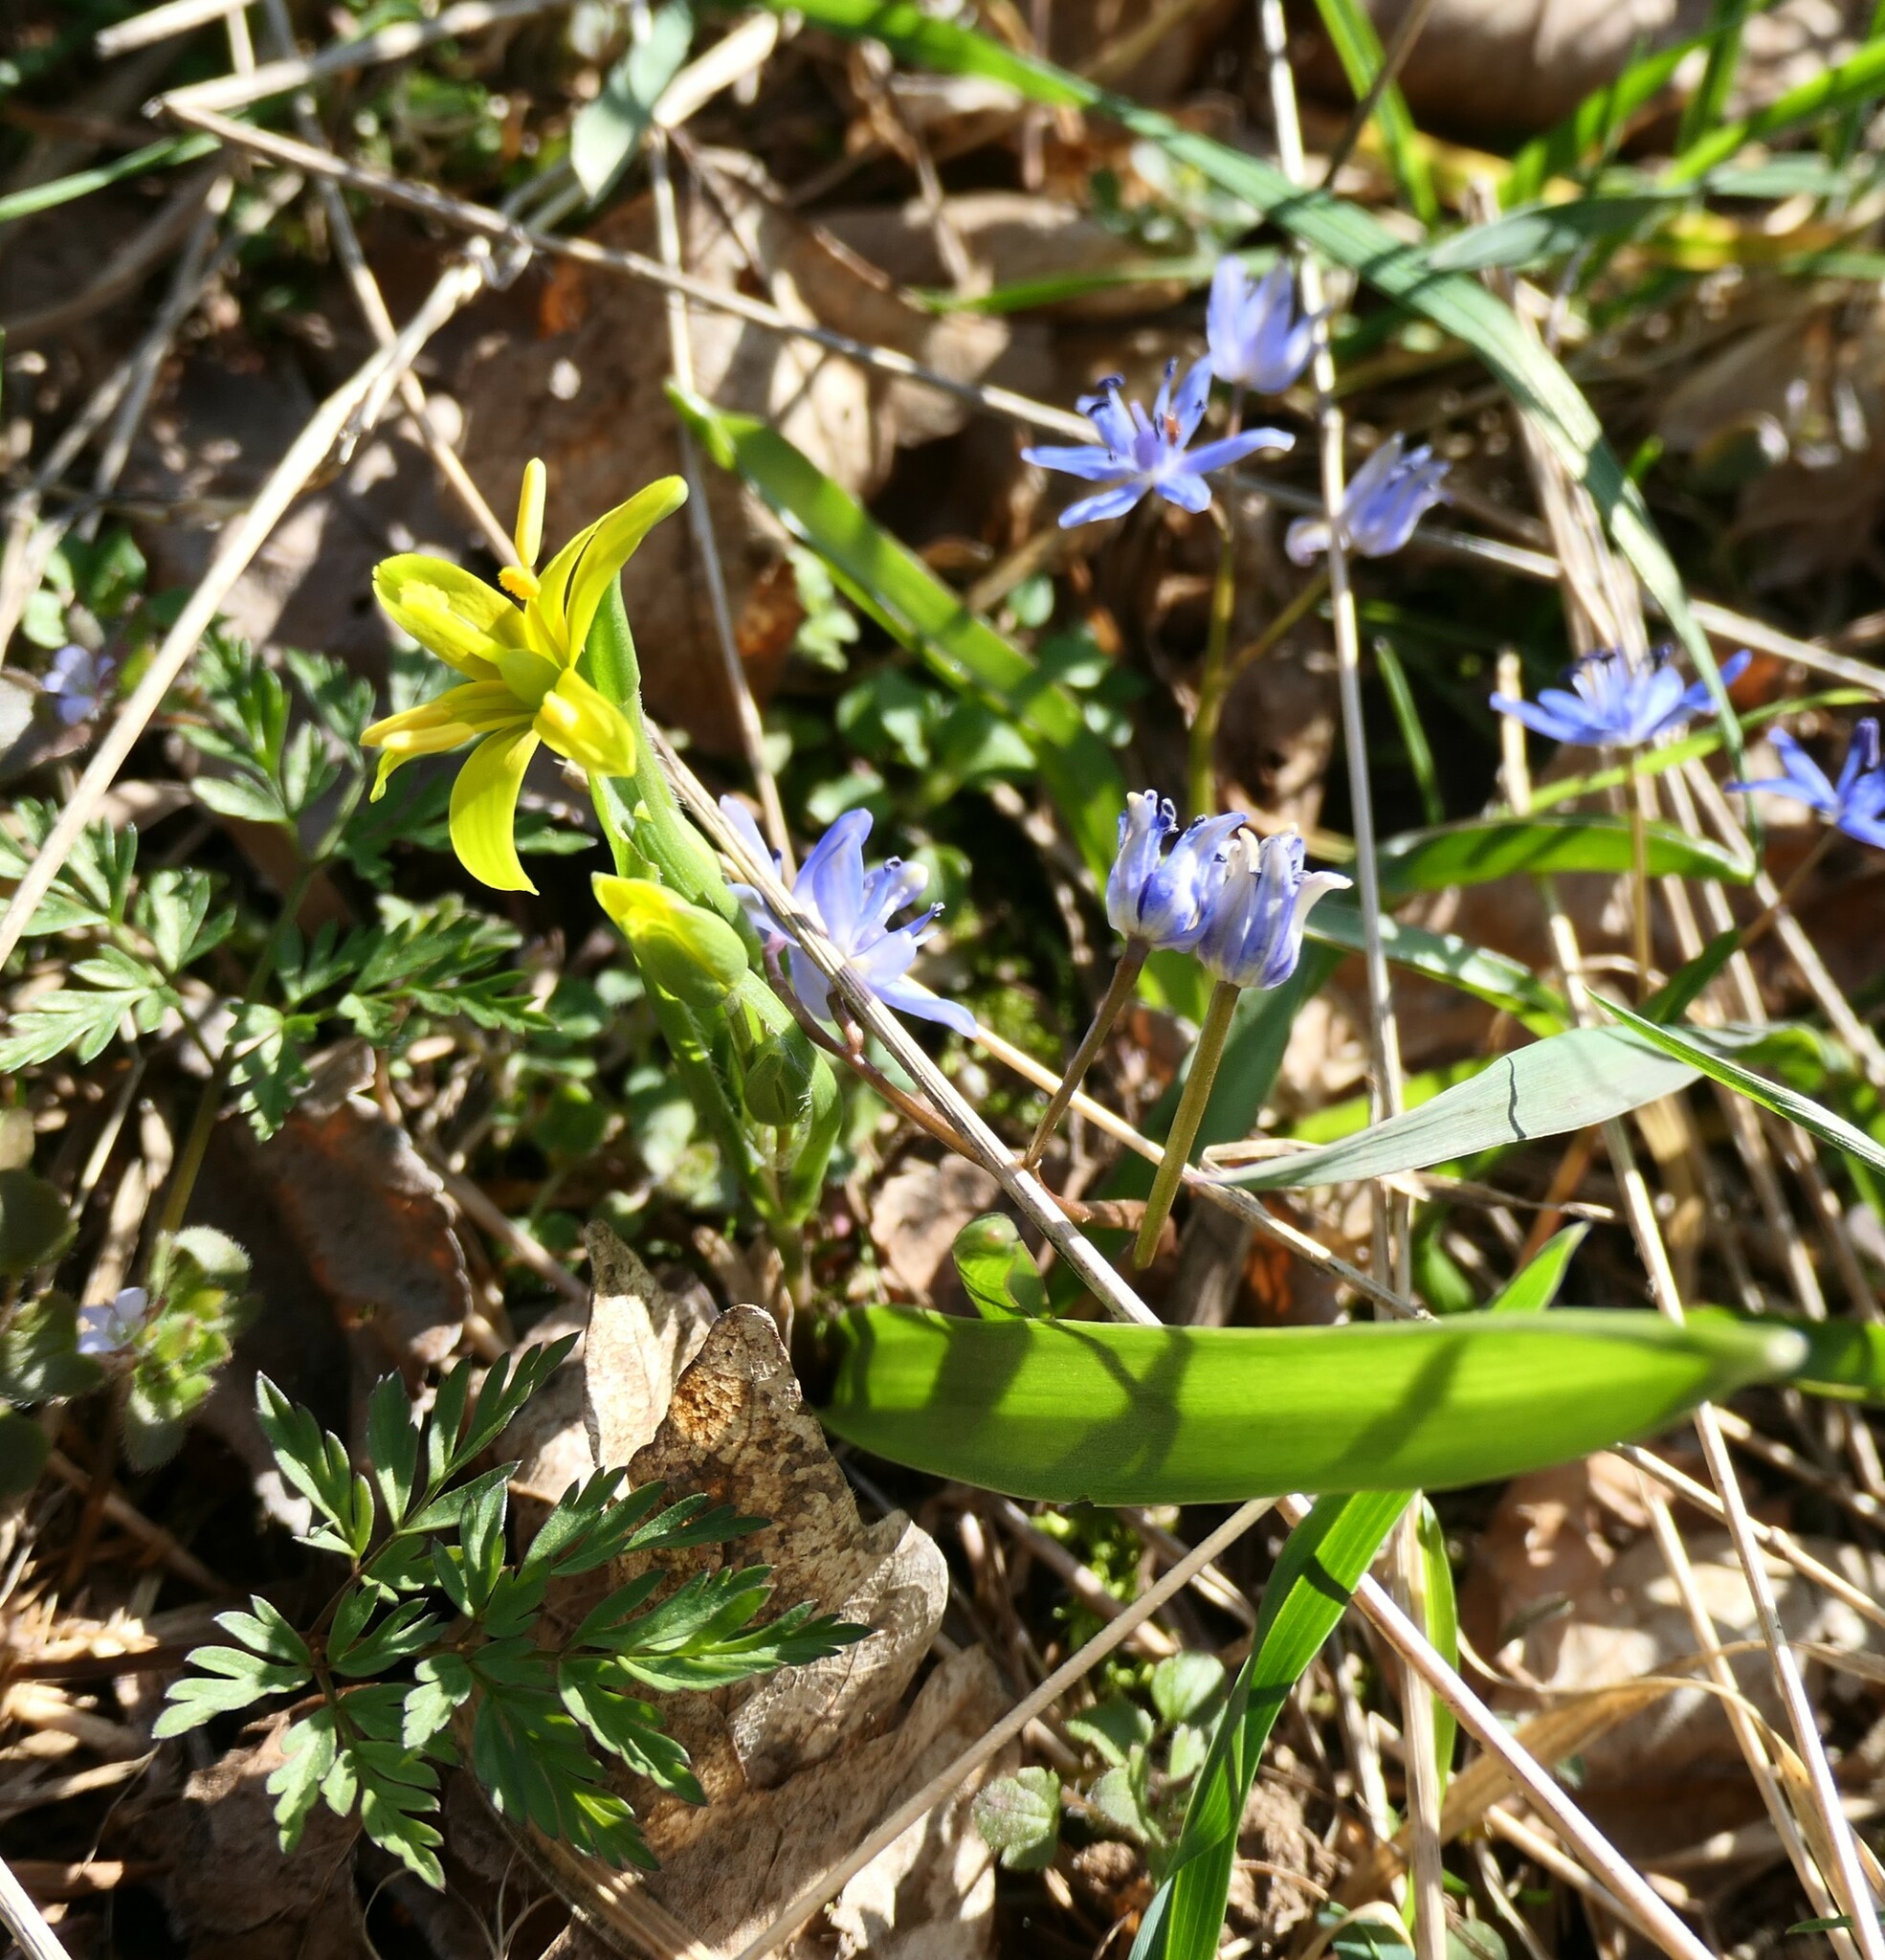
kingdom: Plantae
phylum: Tracheophyta
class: Liliopsida
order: Liliales
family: Liliaceae
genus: Gagea
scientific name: Gagea lutea
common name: Yellow star-of-bethlehem
